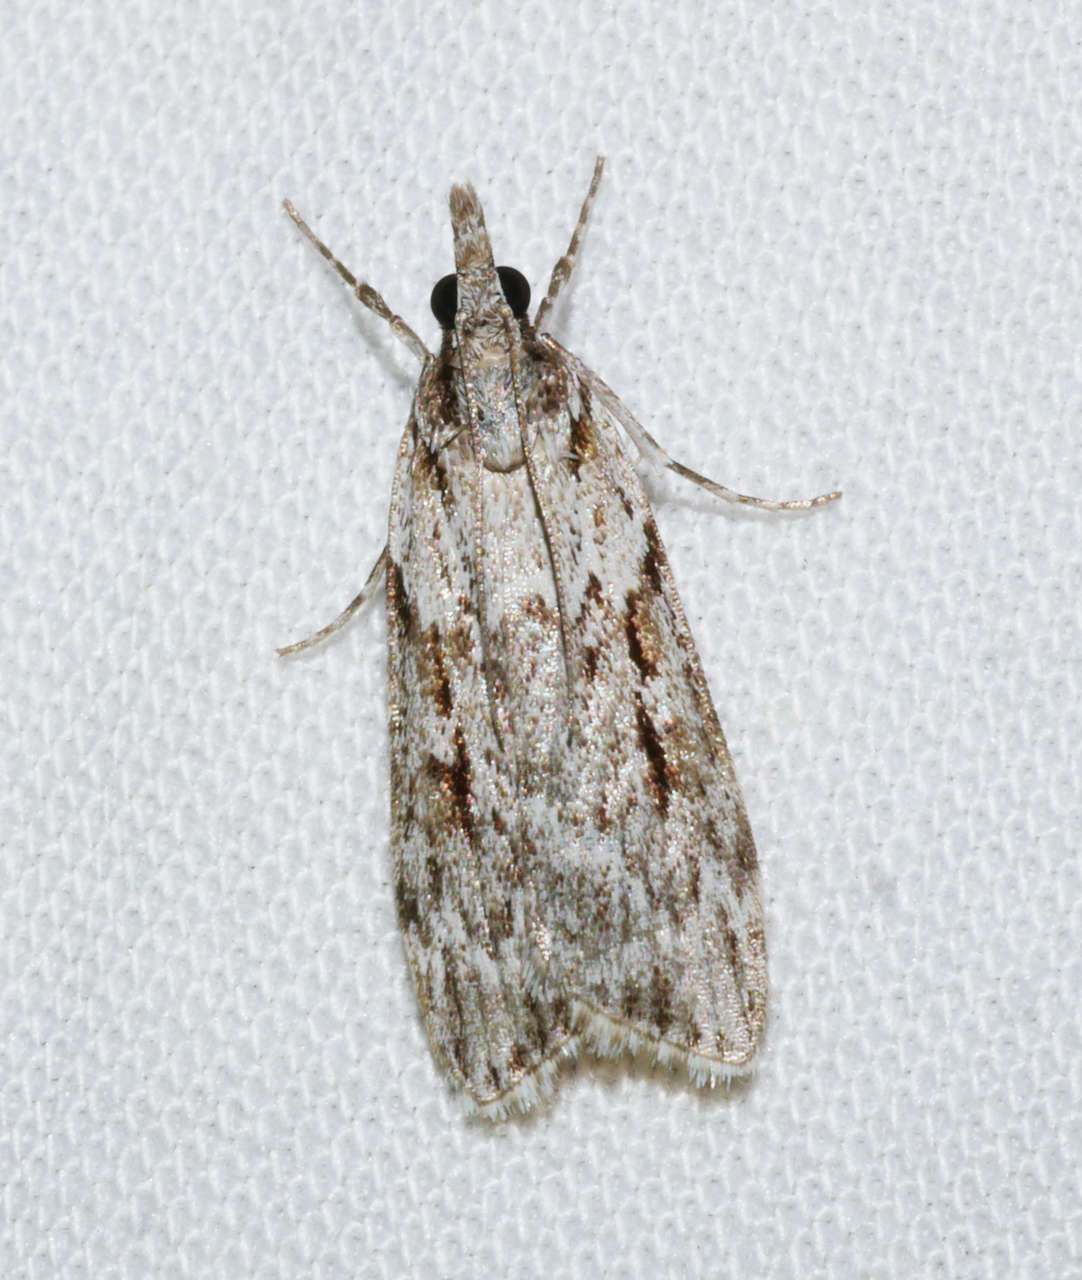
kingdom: Animalia
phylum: Arthropoda
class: Insecta
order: Lepidoptera
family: Crambidae
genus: Scoparia
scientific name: Scoparia plagiotis
